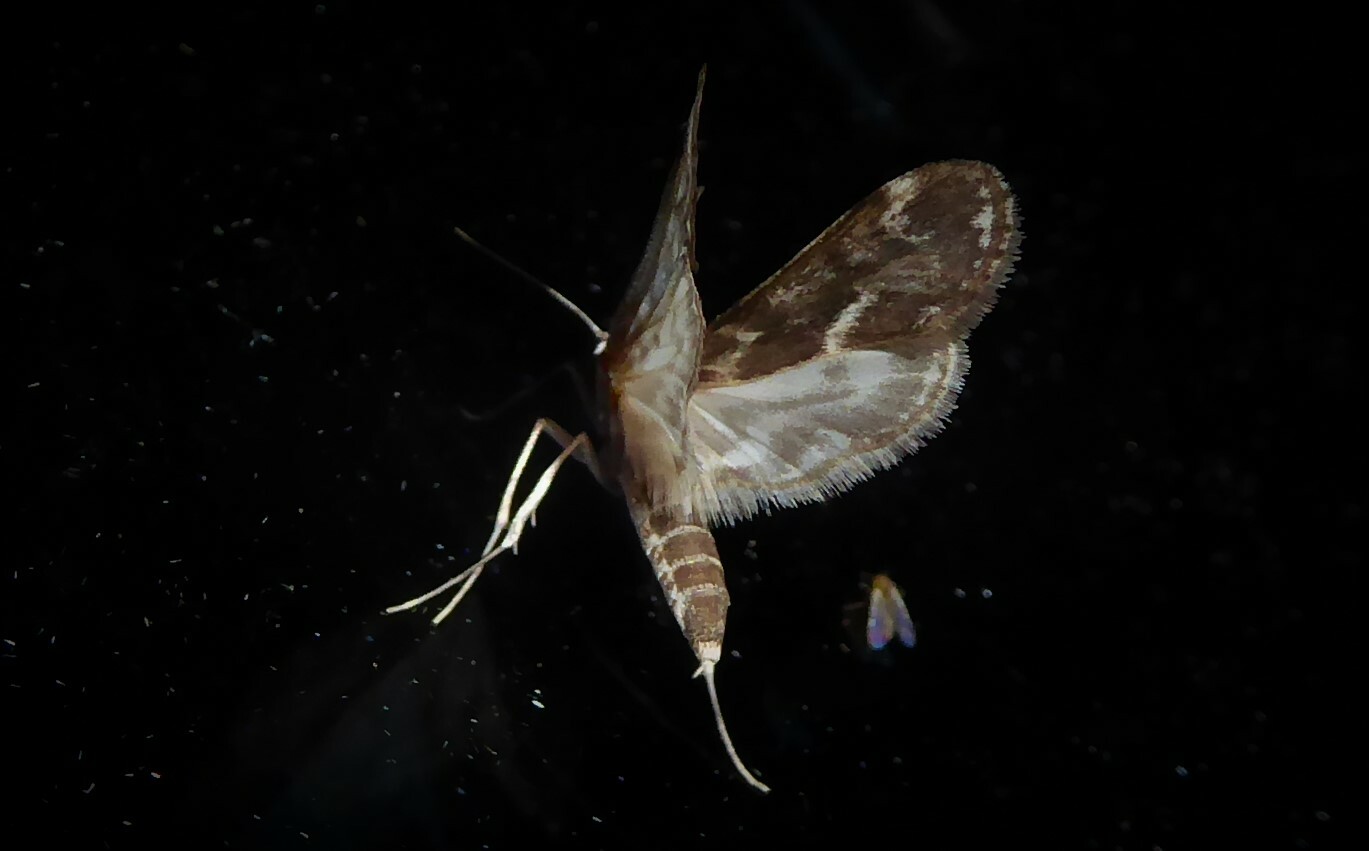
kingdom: Animalia
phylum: Arthropoda
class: Insecta
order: Lepidoptera
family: Crambidae
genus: Hygraula
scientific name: Hygraula nitens
